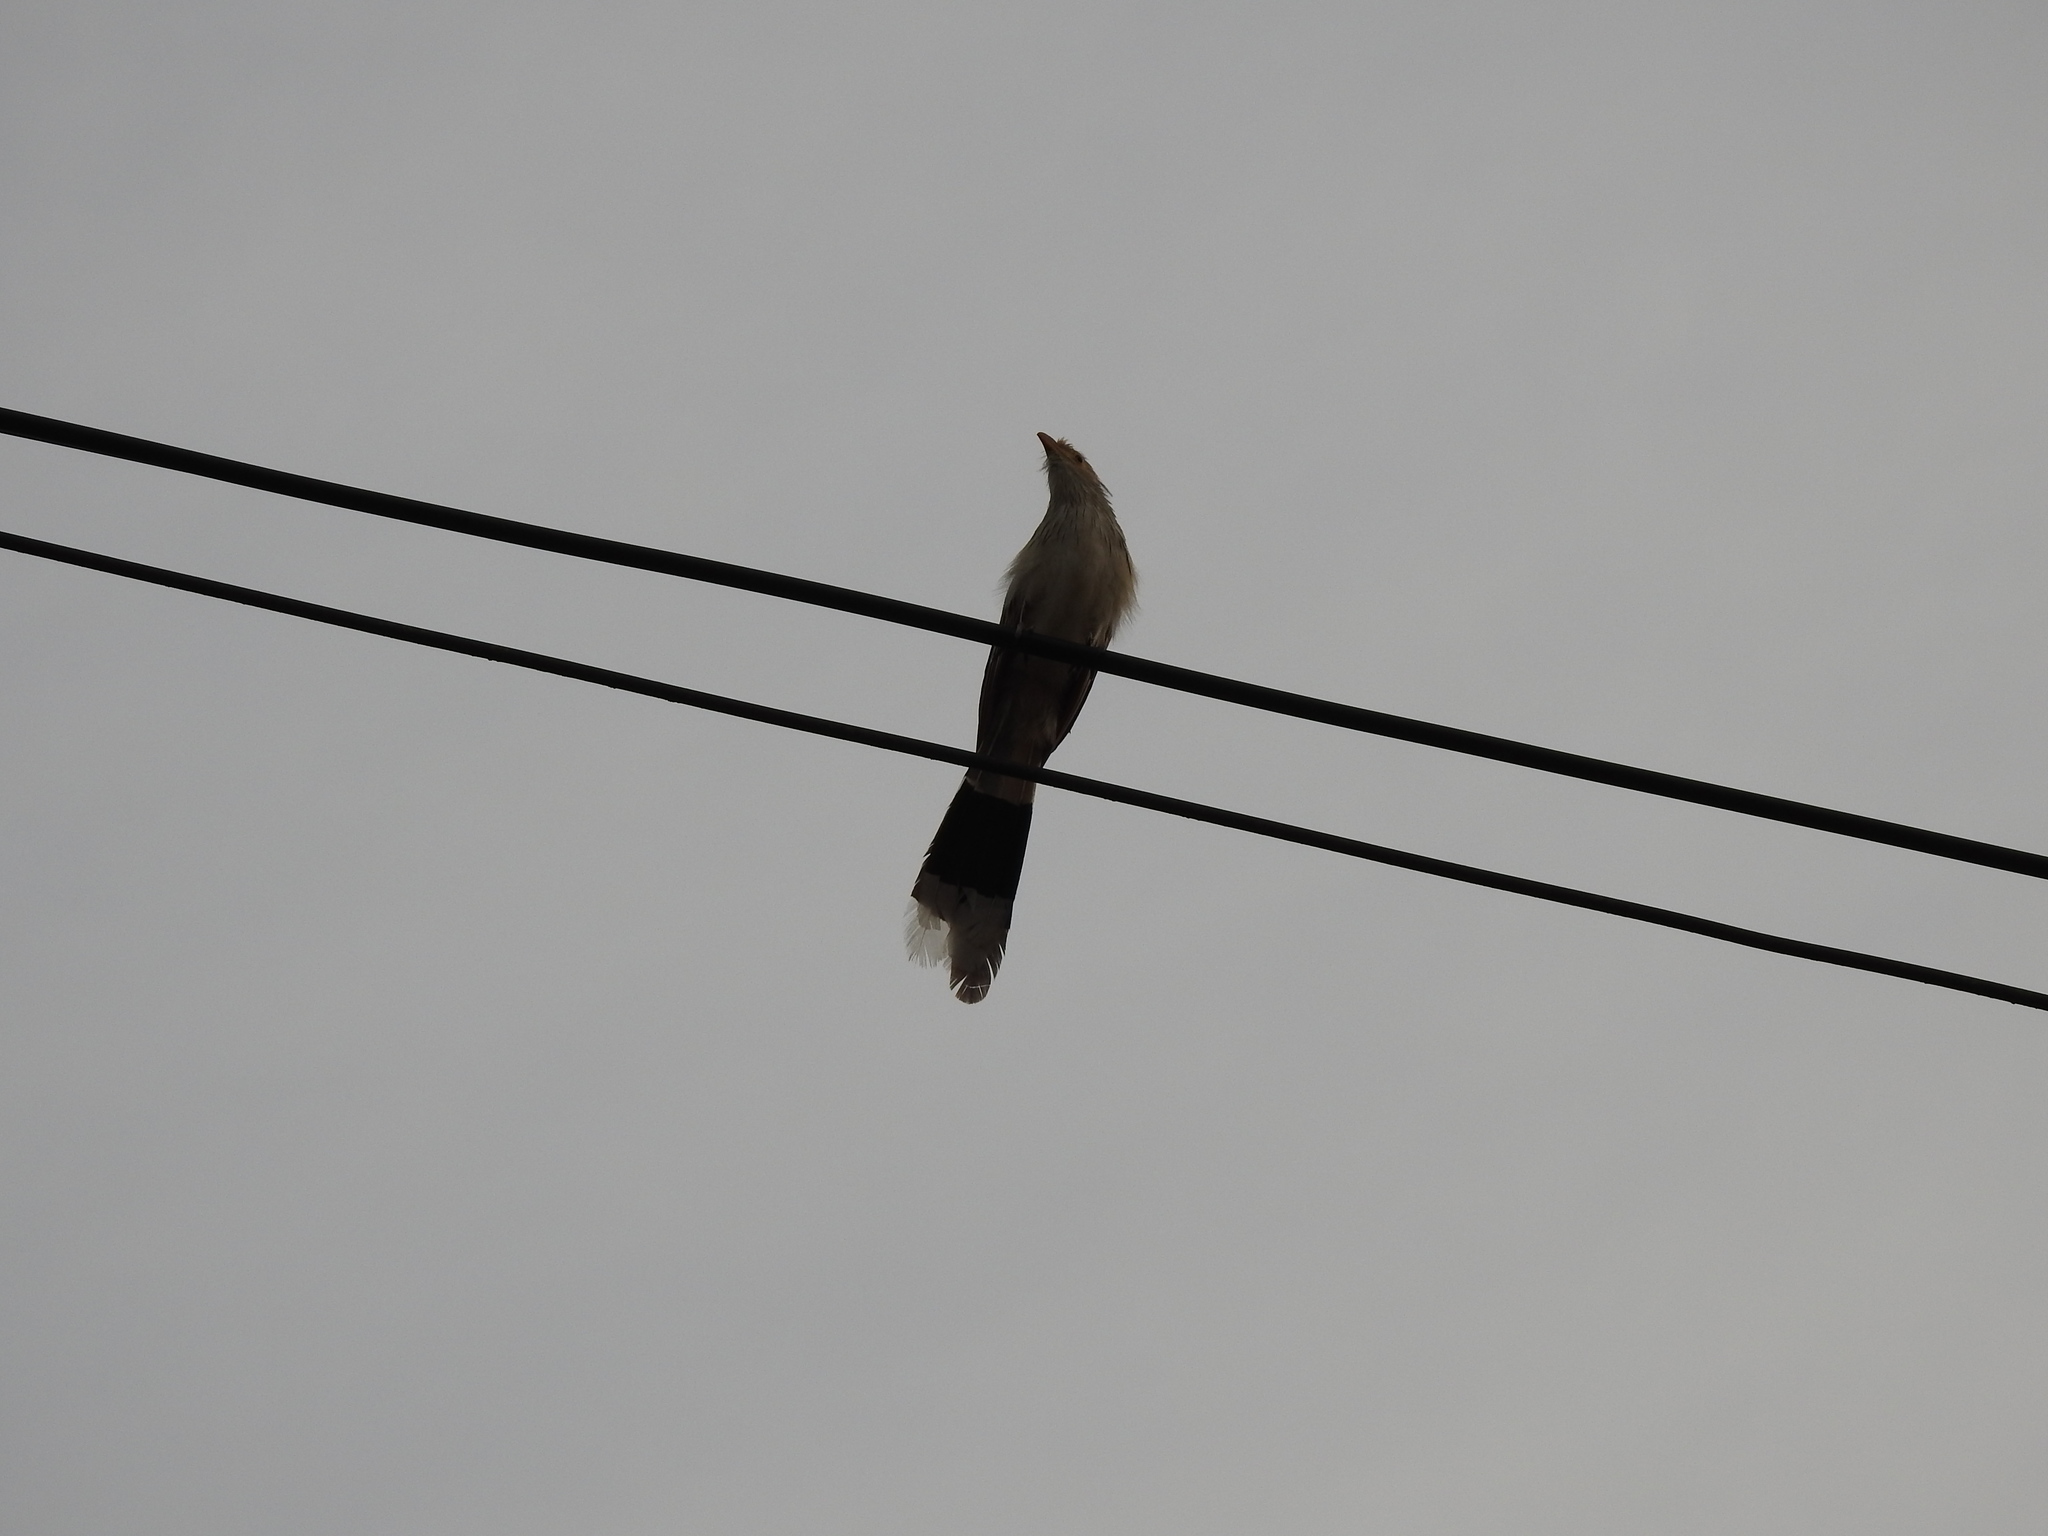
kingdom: Animalia
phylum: Chordata
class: Aves
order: Cuculiformes
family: Cuculidae
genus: Guira
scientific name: Guira guira
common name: Guira cuckoo
